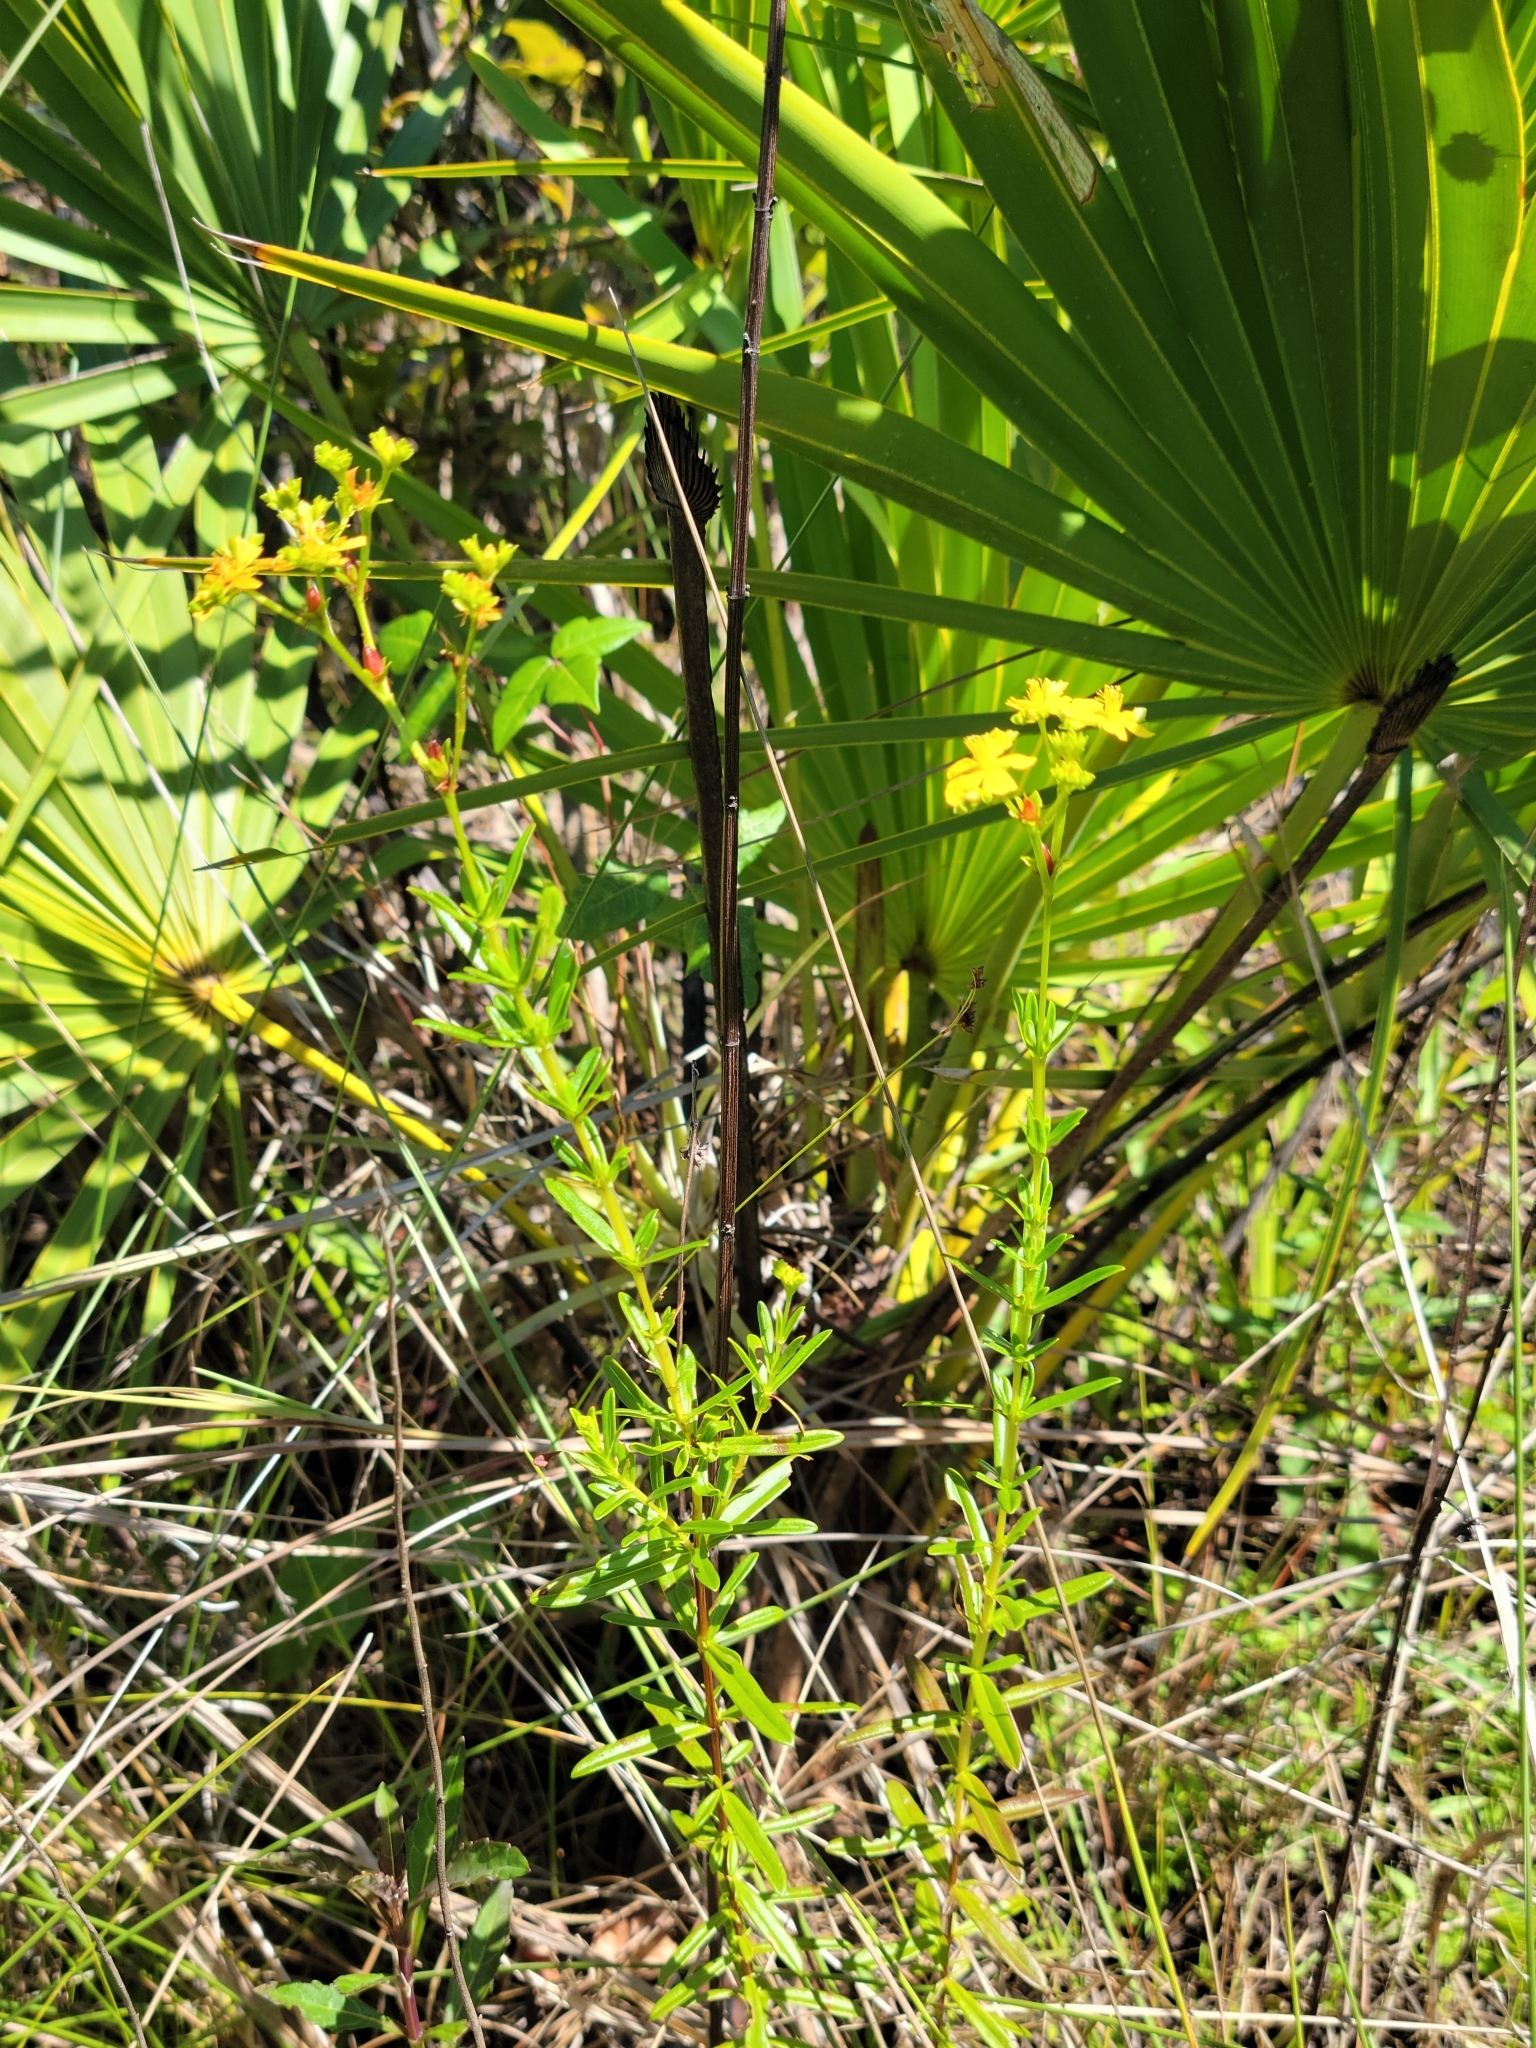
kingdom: Plantae
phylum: Tracheophyta
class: Magnoliopsida
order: Malpighiales
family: Hypericaceae
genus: Hypericum
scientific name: Hypericum cistifolium
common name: Round-pod st. john's-wort
